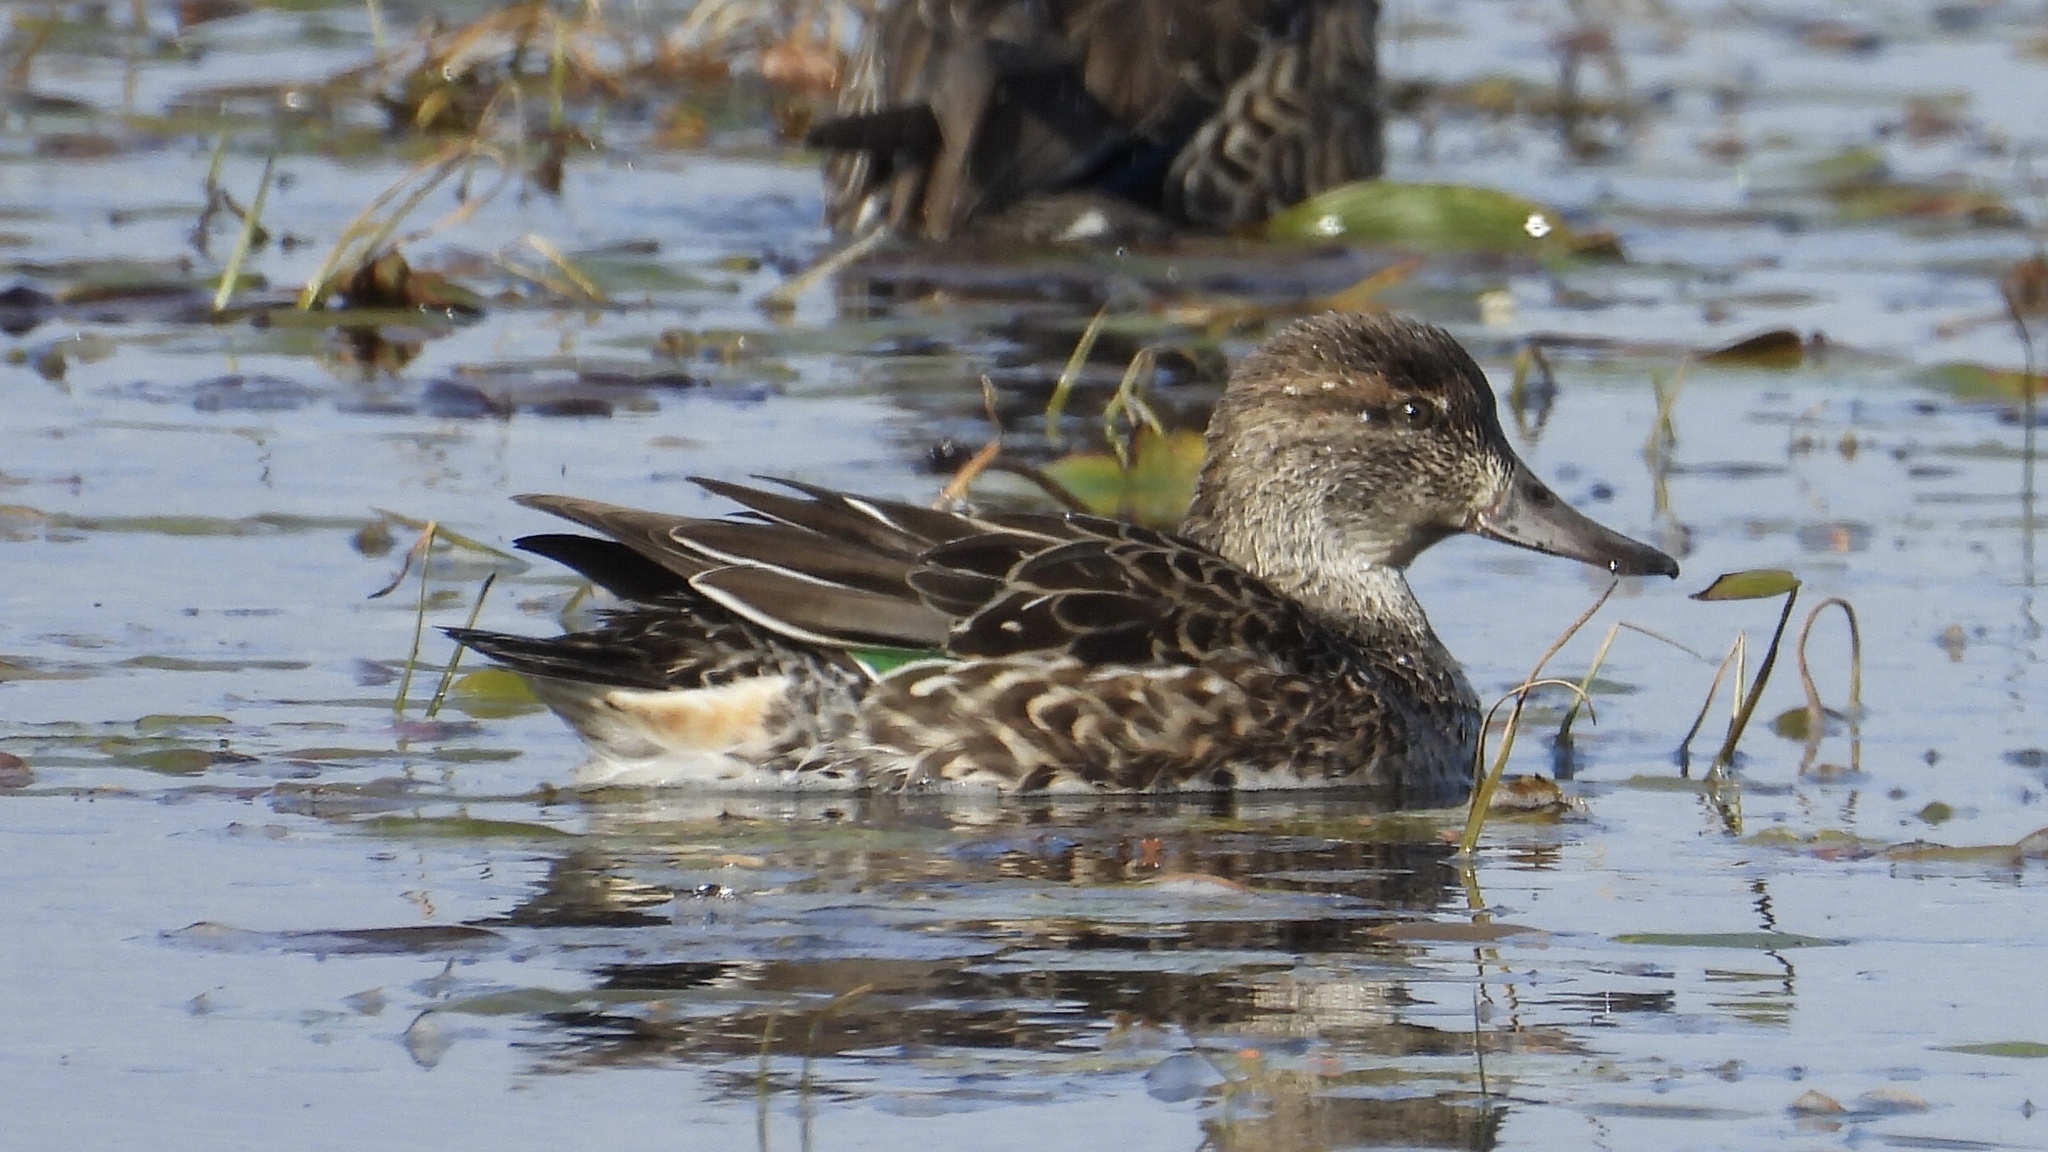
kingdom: Animalia
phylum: Chordata
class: Aves
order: Anseriformes
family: Anatidae
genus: Anas
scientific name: Anas crecca
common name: Eurasian teal
